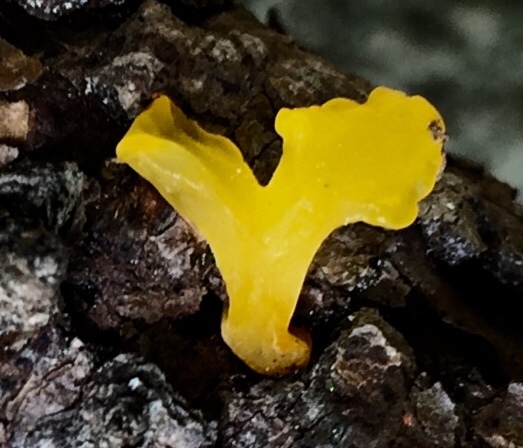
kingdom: Fungi
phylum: Basidiomycota
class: Dacrymycetes
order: Dacrymycetales
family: Dacrymycetaceae
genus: Dacrymyces
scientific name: Dacrymyces spathularius
